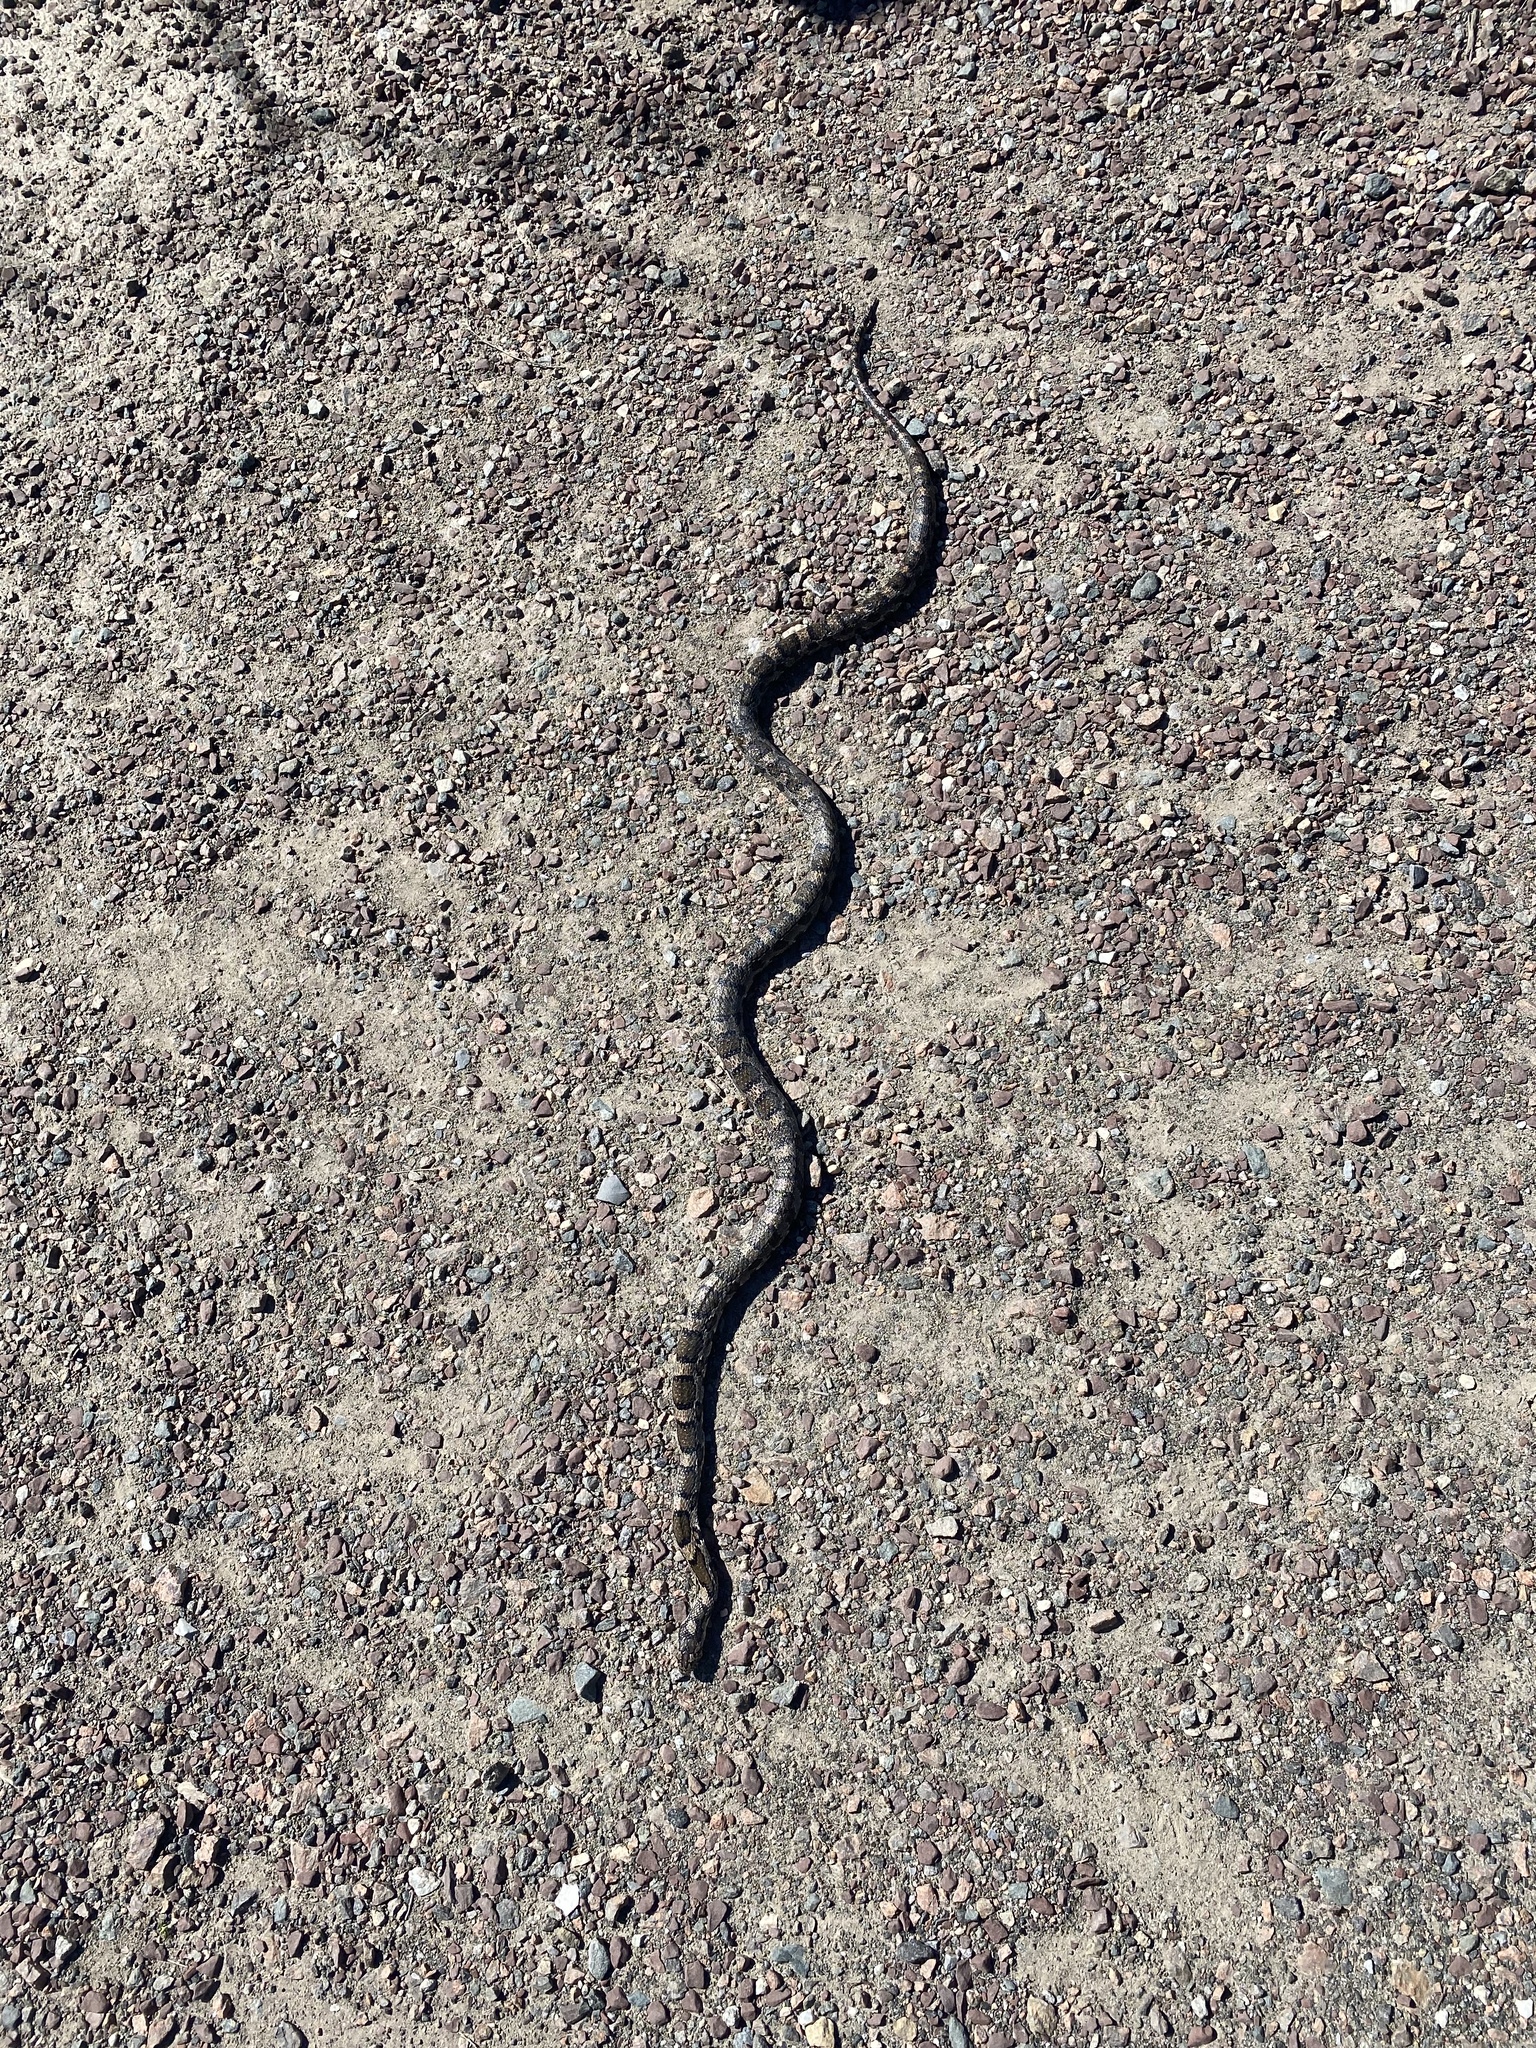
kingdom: Animalia
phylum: Chordata
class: Squamata
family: Colubridae
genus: Lampropeltis
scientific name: Lampropeltis triangulum
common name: Eastern milksnake
